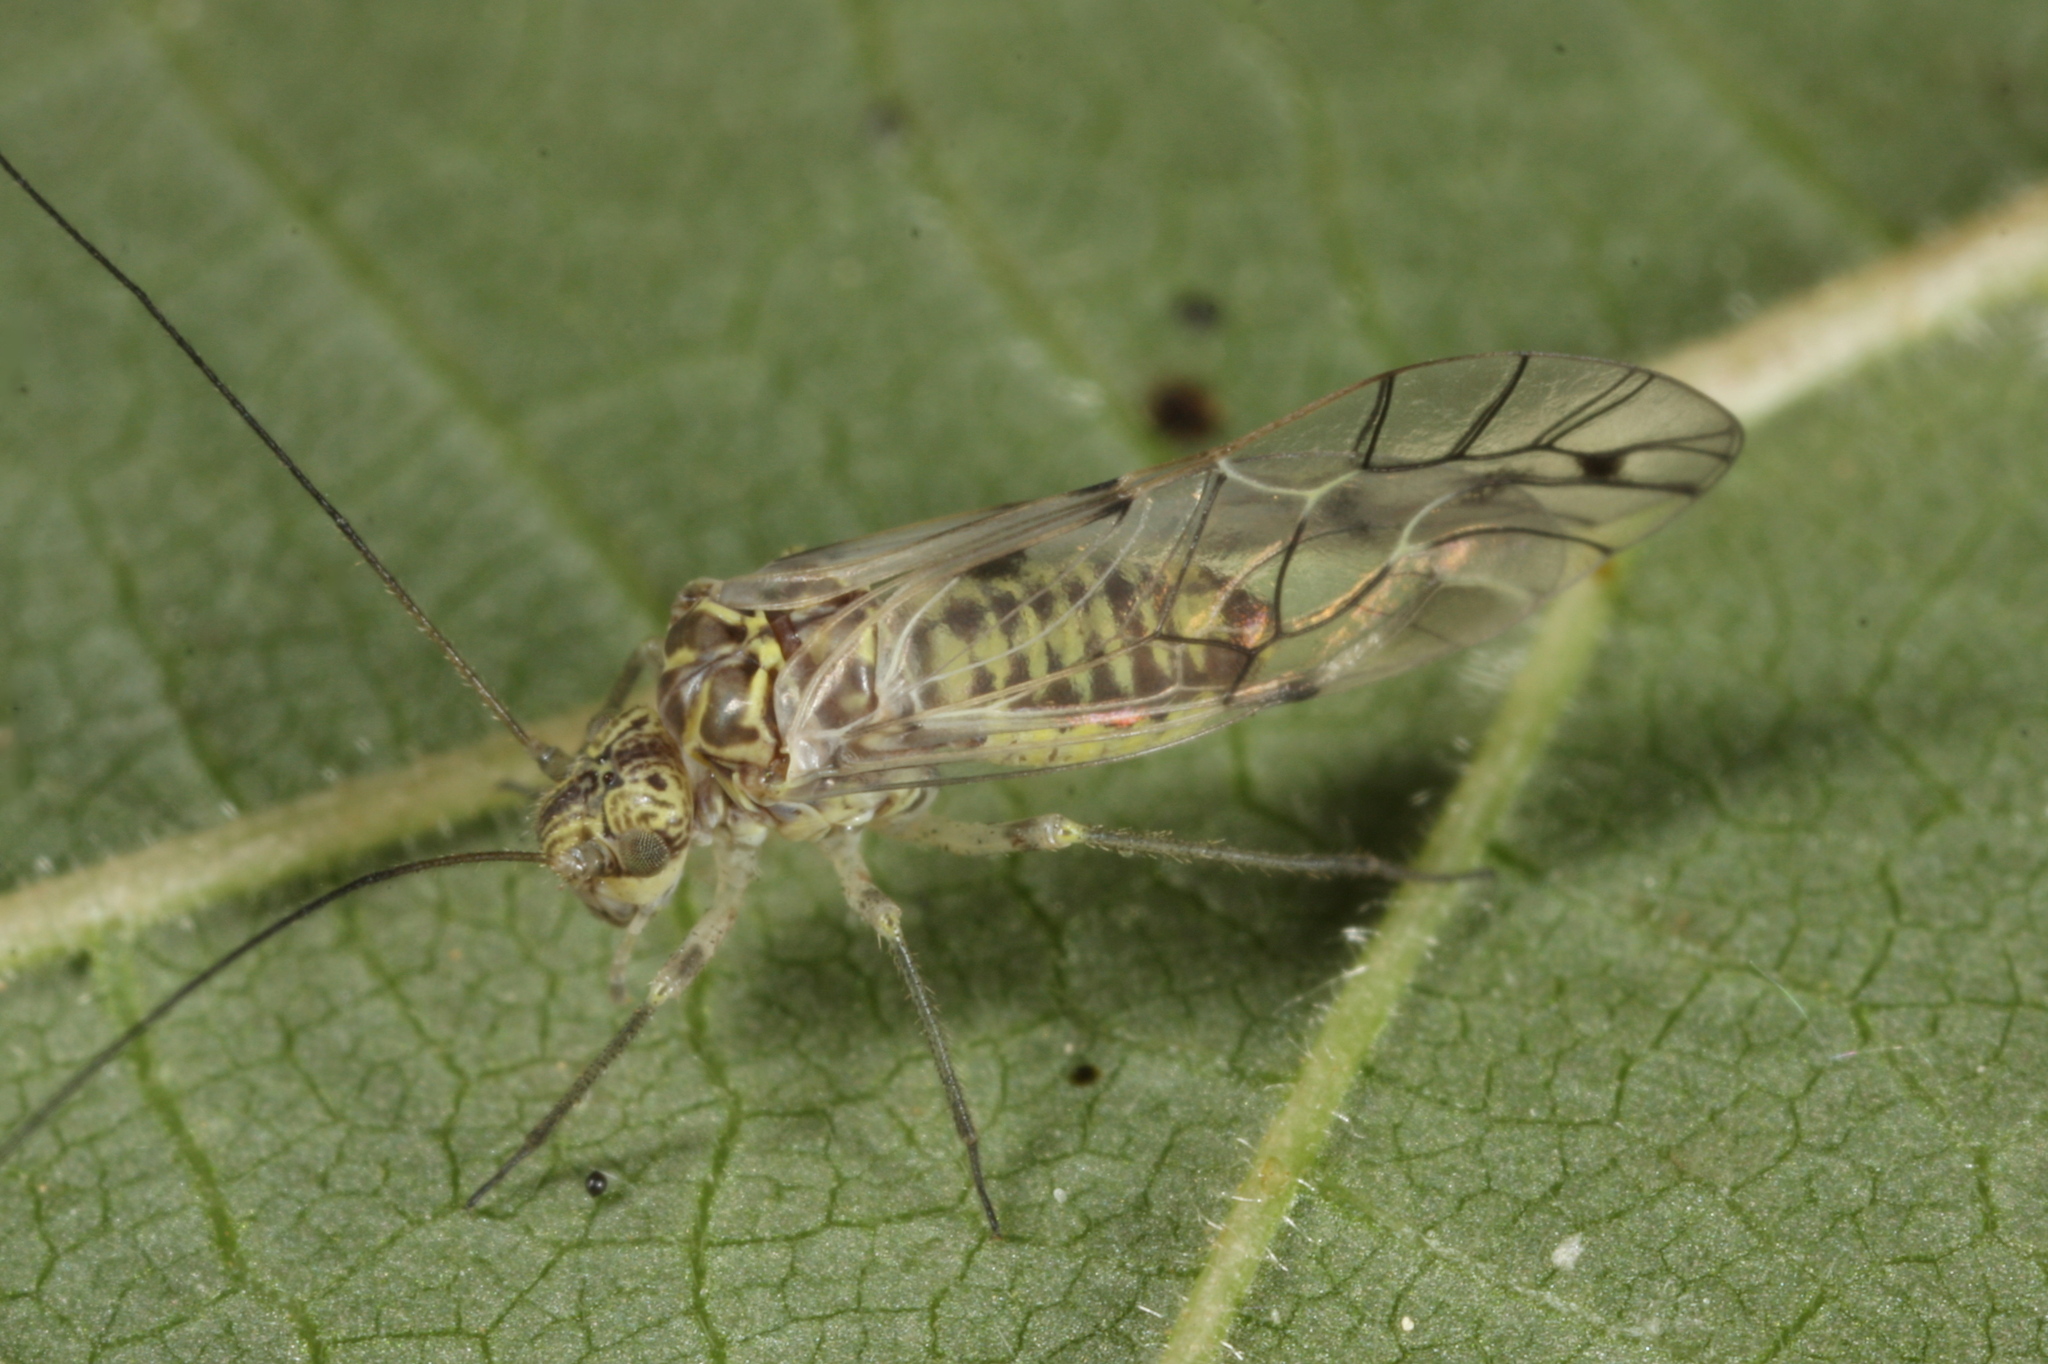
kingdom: Animalia
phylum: Arthropoda
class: Insecta
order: Psocodea
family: Psocidae
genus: Psococerastis
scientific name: Psococerastis gibbosa
